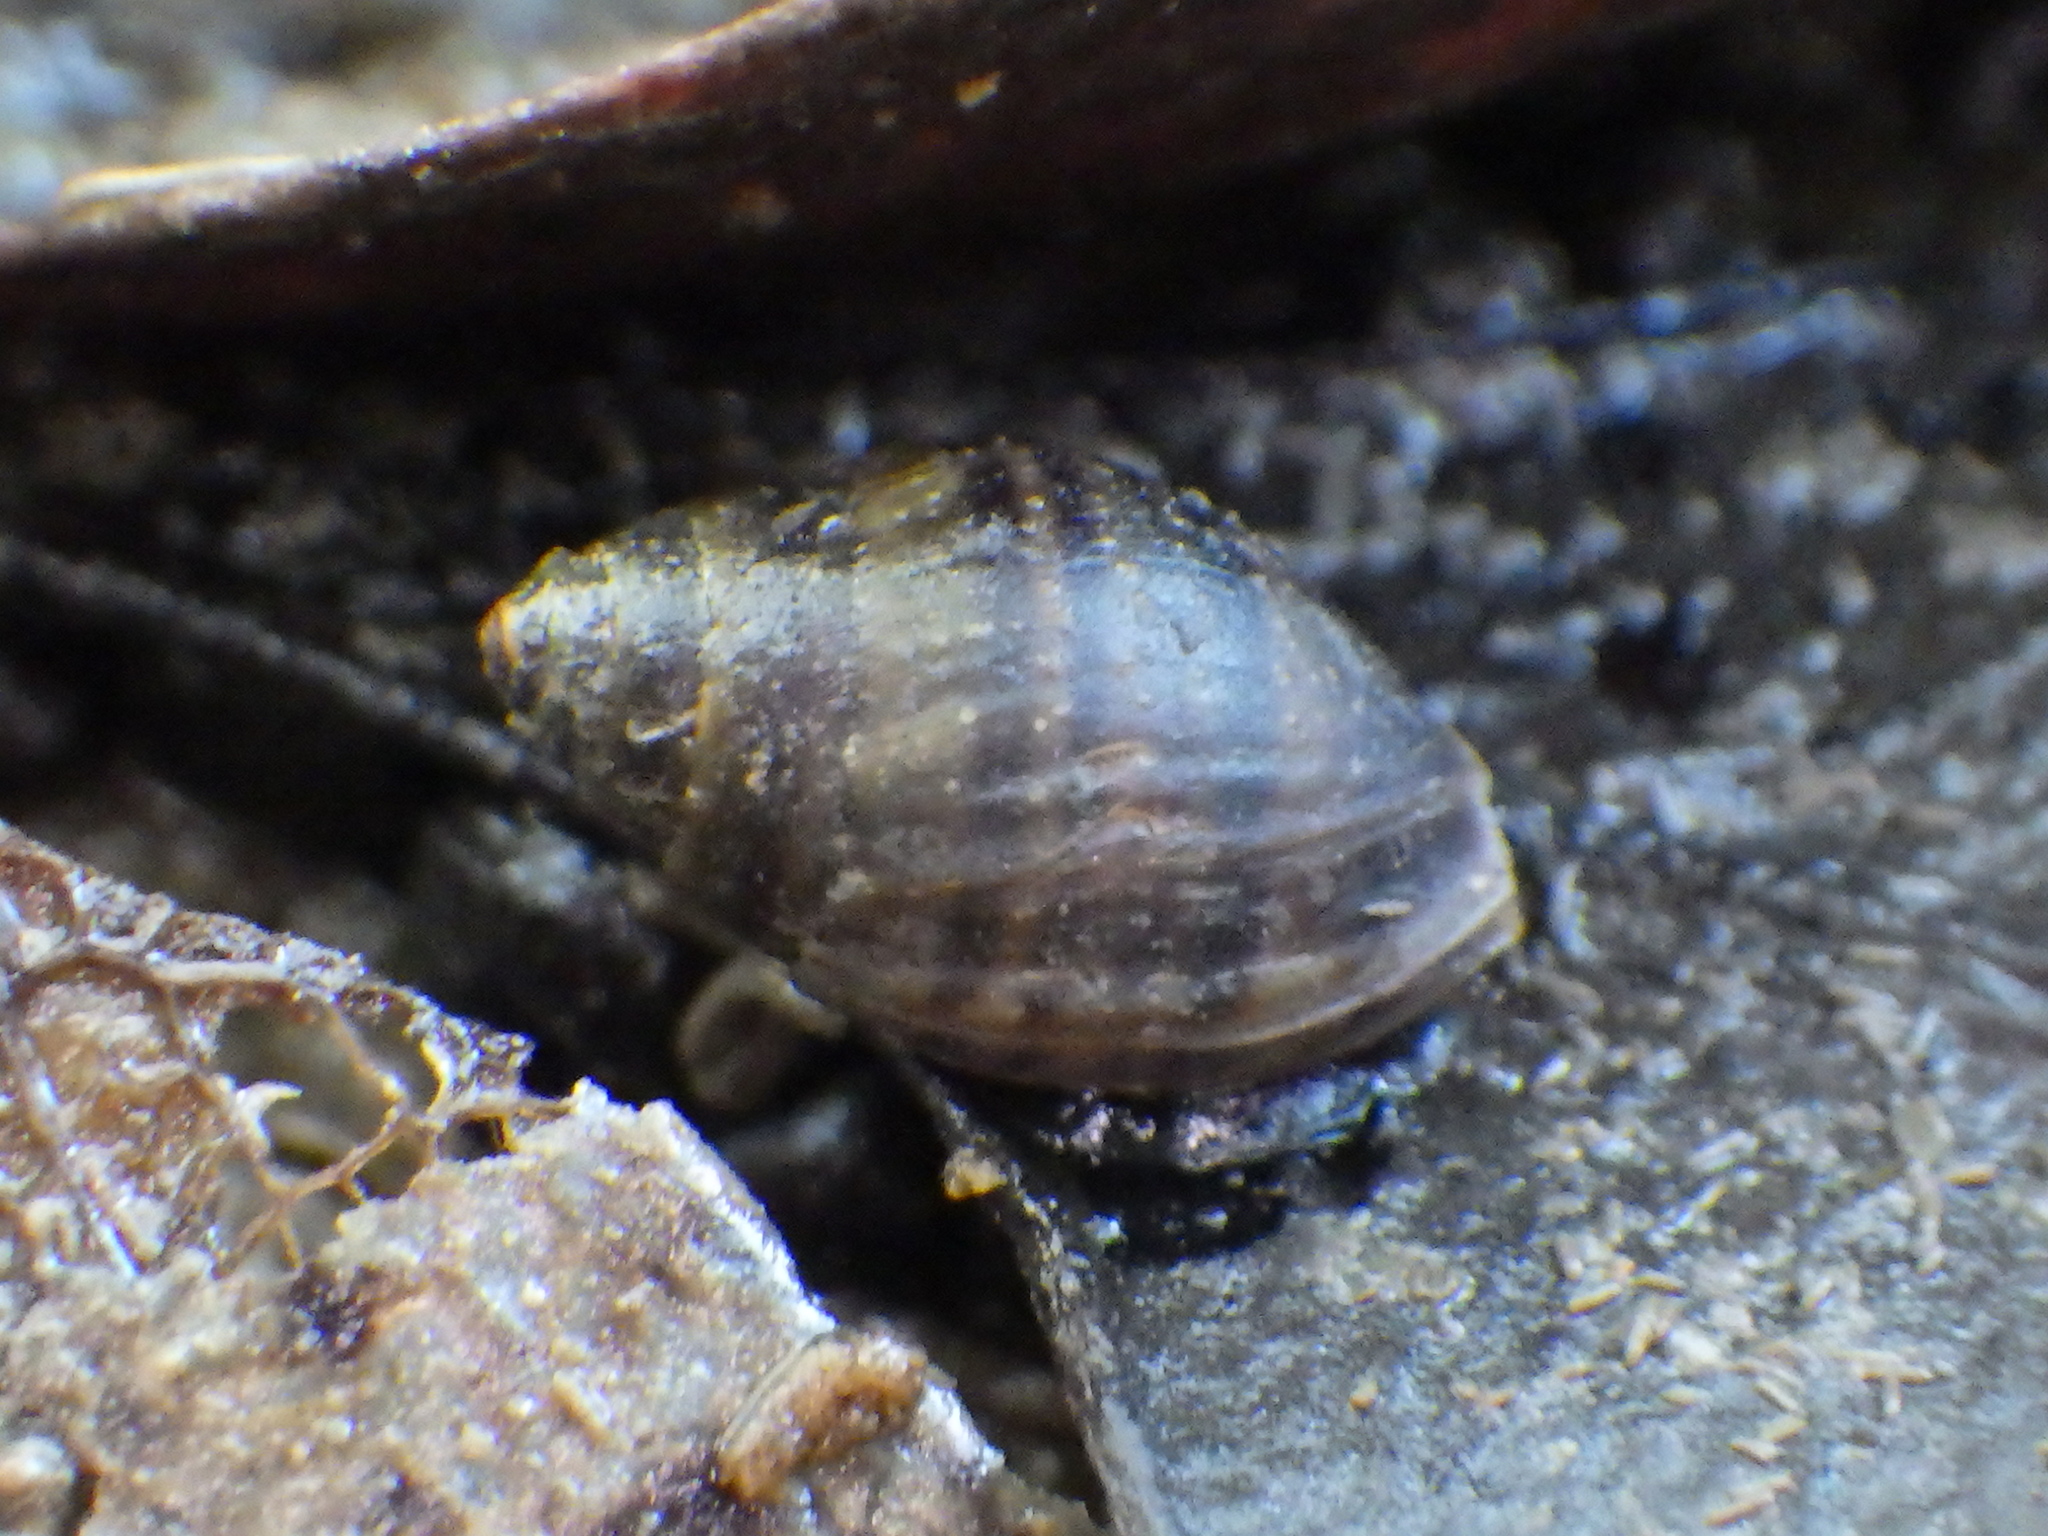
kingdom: Animalia
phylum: Mollusca
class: Gastropoda
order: Ellobiida
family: Ellobiidae
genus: Pleuroloba
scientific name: Pleuroloba costellaris
